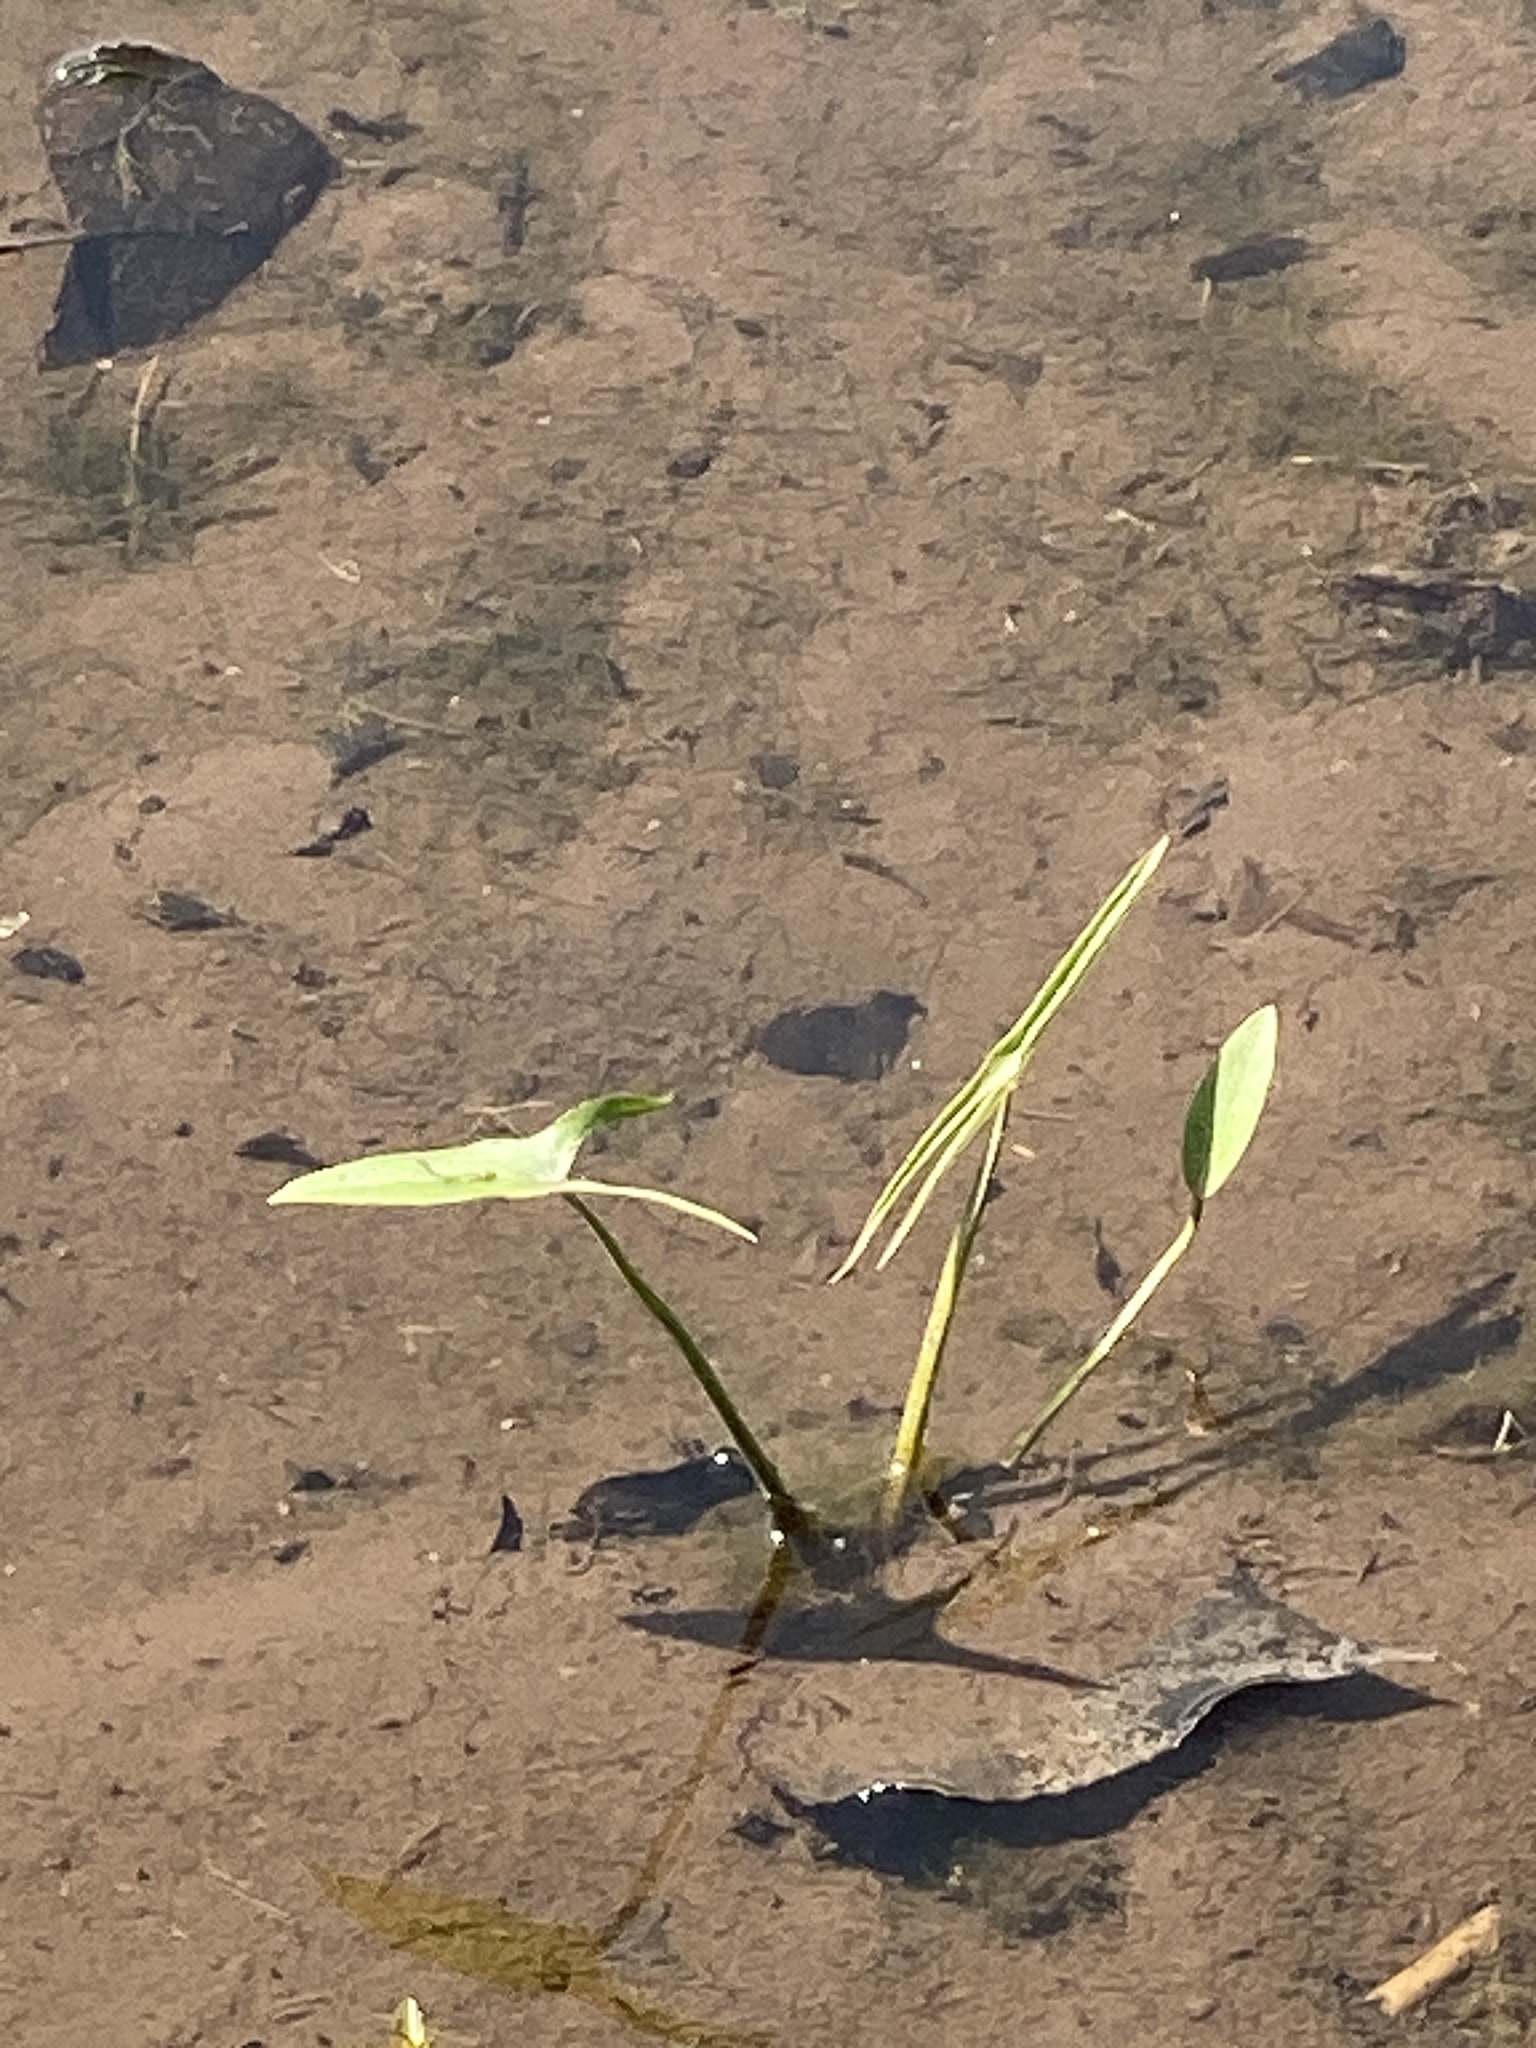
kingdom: Plantae
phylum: Tracheophyta
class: Liliopsida
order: Alismatales
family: Alismataceae
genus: Sagittaria
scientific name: Sagittaria latifolia
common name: Duck-potato
